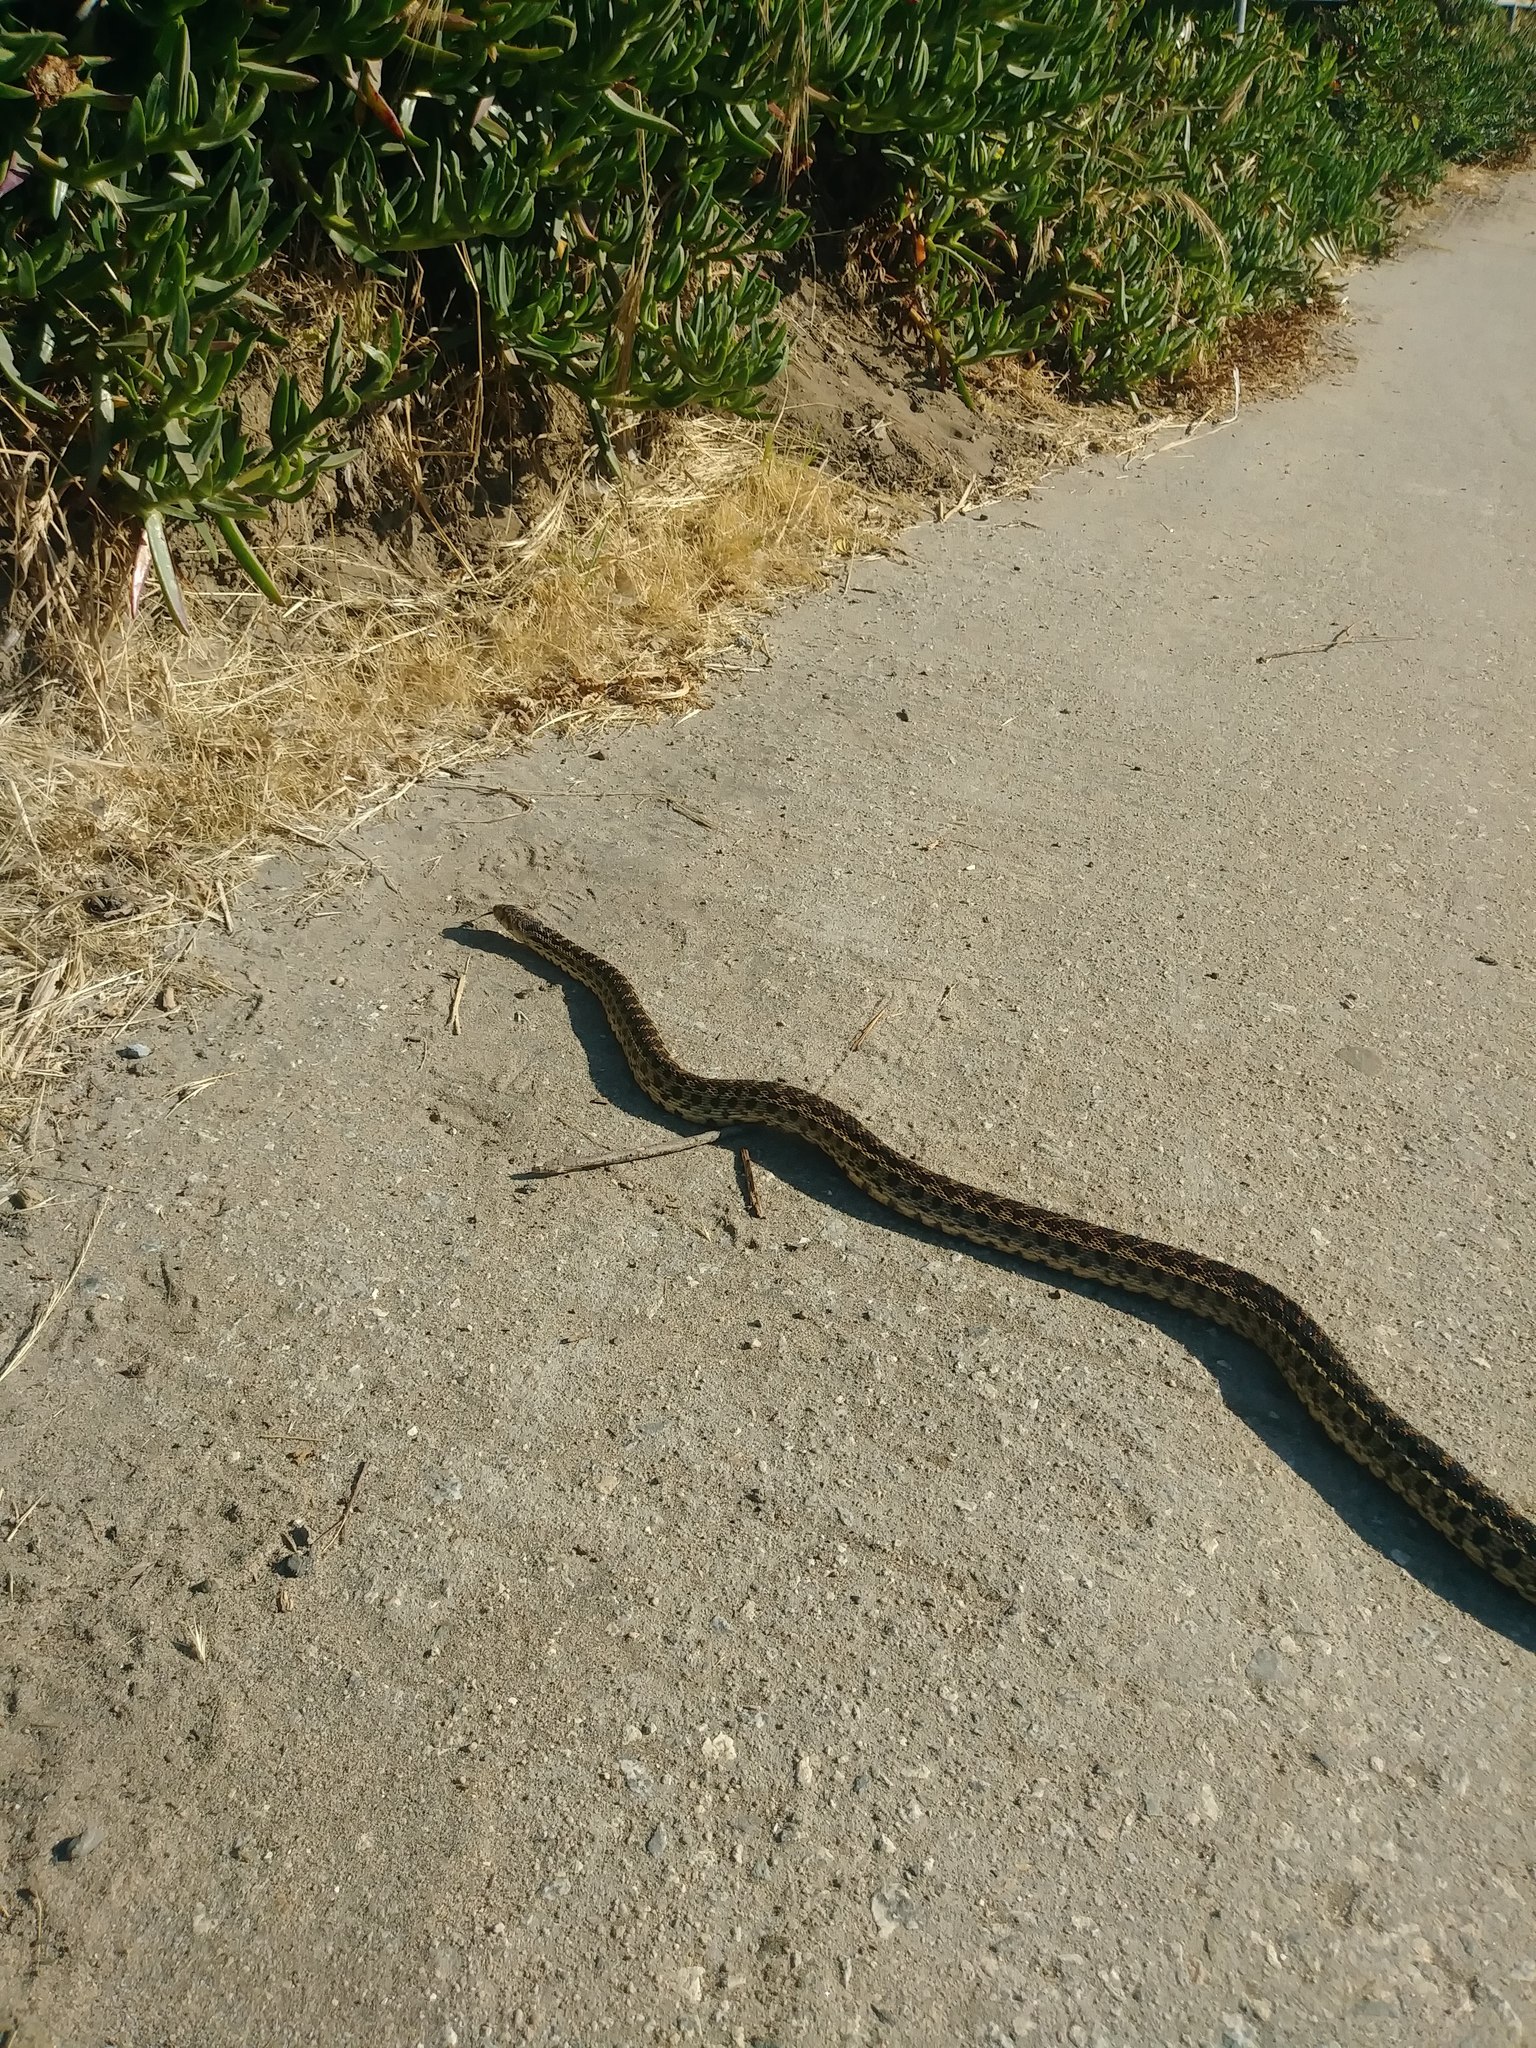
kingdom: Animalia
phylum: Chordata
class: Squamata
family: Colubridae
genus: Pituophis
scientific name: Pituophis catenifer
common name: Gopher snake
